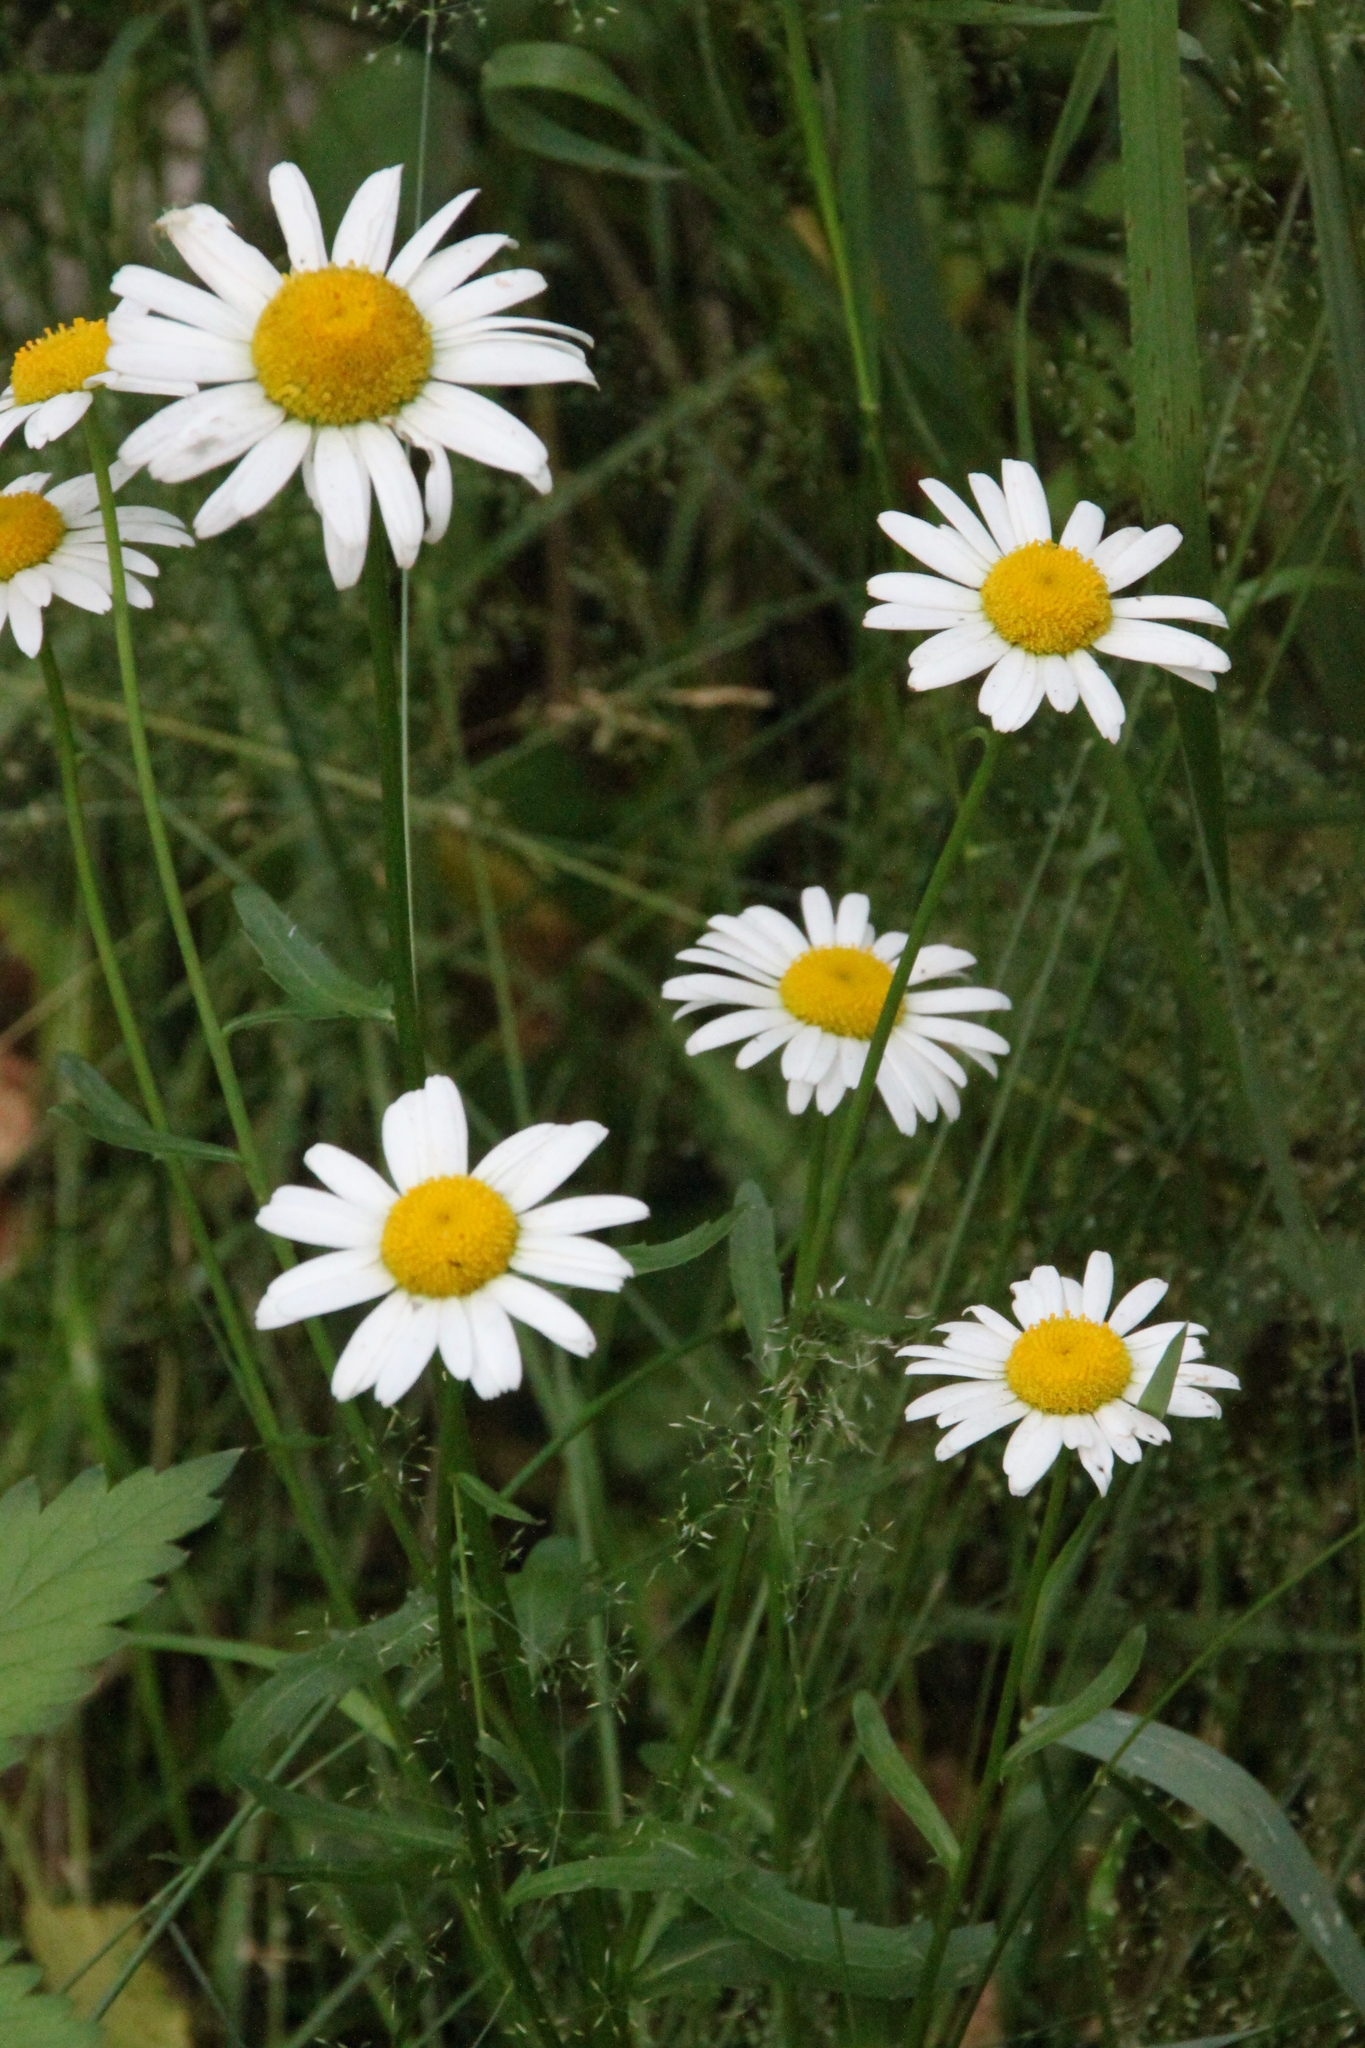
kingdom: Plantae
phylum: Tracheophyta
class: Magnoliopsida
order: Asterales
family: Asteraceae
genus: Leucanthemum
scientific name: Leucanthemum vulgare
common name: Oxeye daisy
